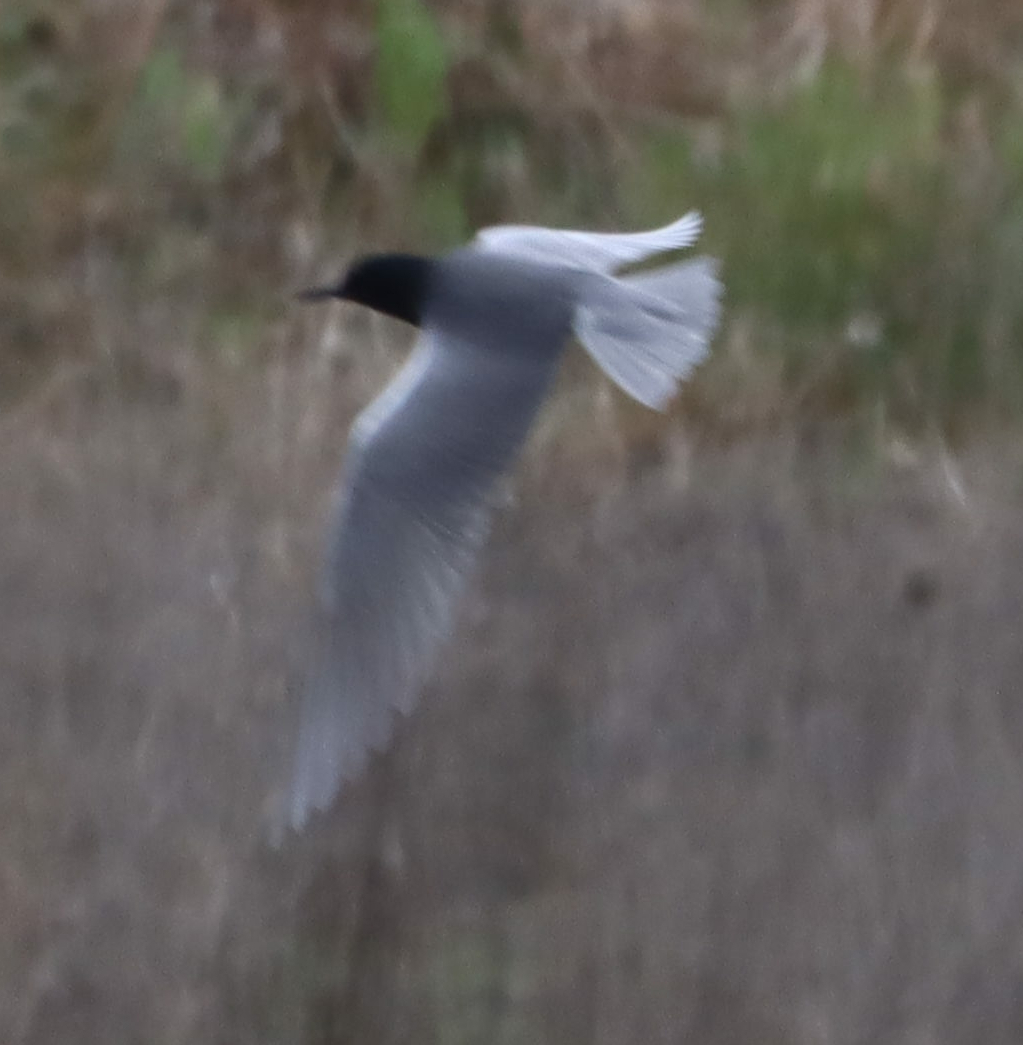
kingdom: Animalia
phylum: Chordata
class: Aves
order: Charadriiformes
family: Laridae
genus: Chlidonias
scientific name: Chlidonias niger
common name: Black tern
